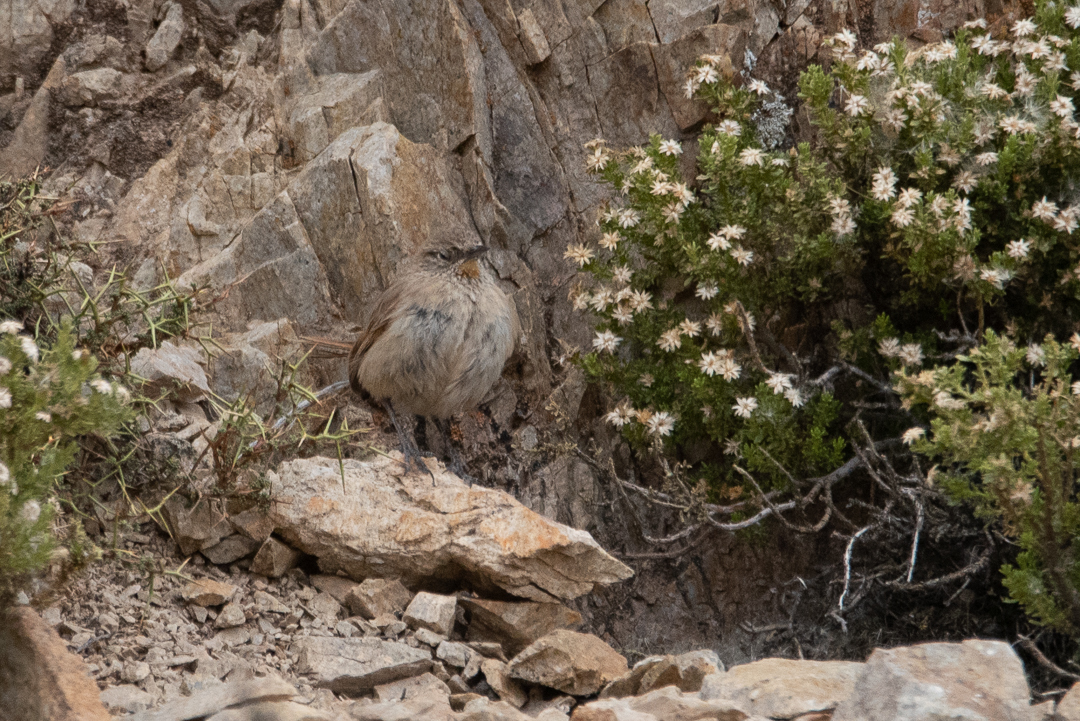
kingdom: Animalia
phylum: Chordata
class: Aves
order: Passeriformes
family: Furnariidae
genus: Asthenes
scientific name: Asthenes modesta
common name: Cordilleran canastero
